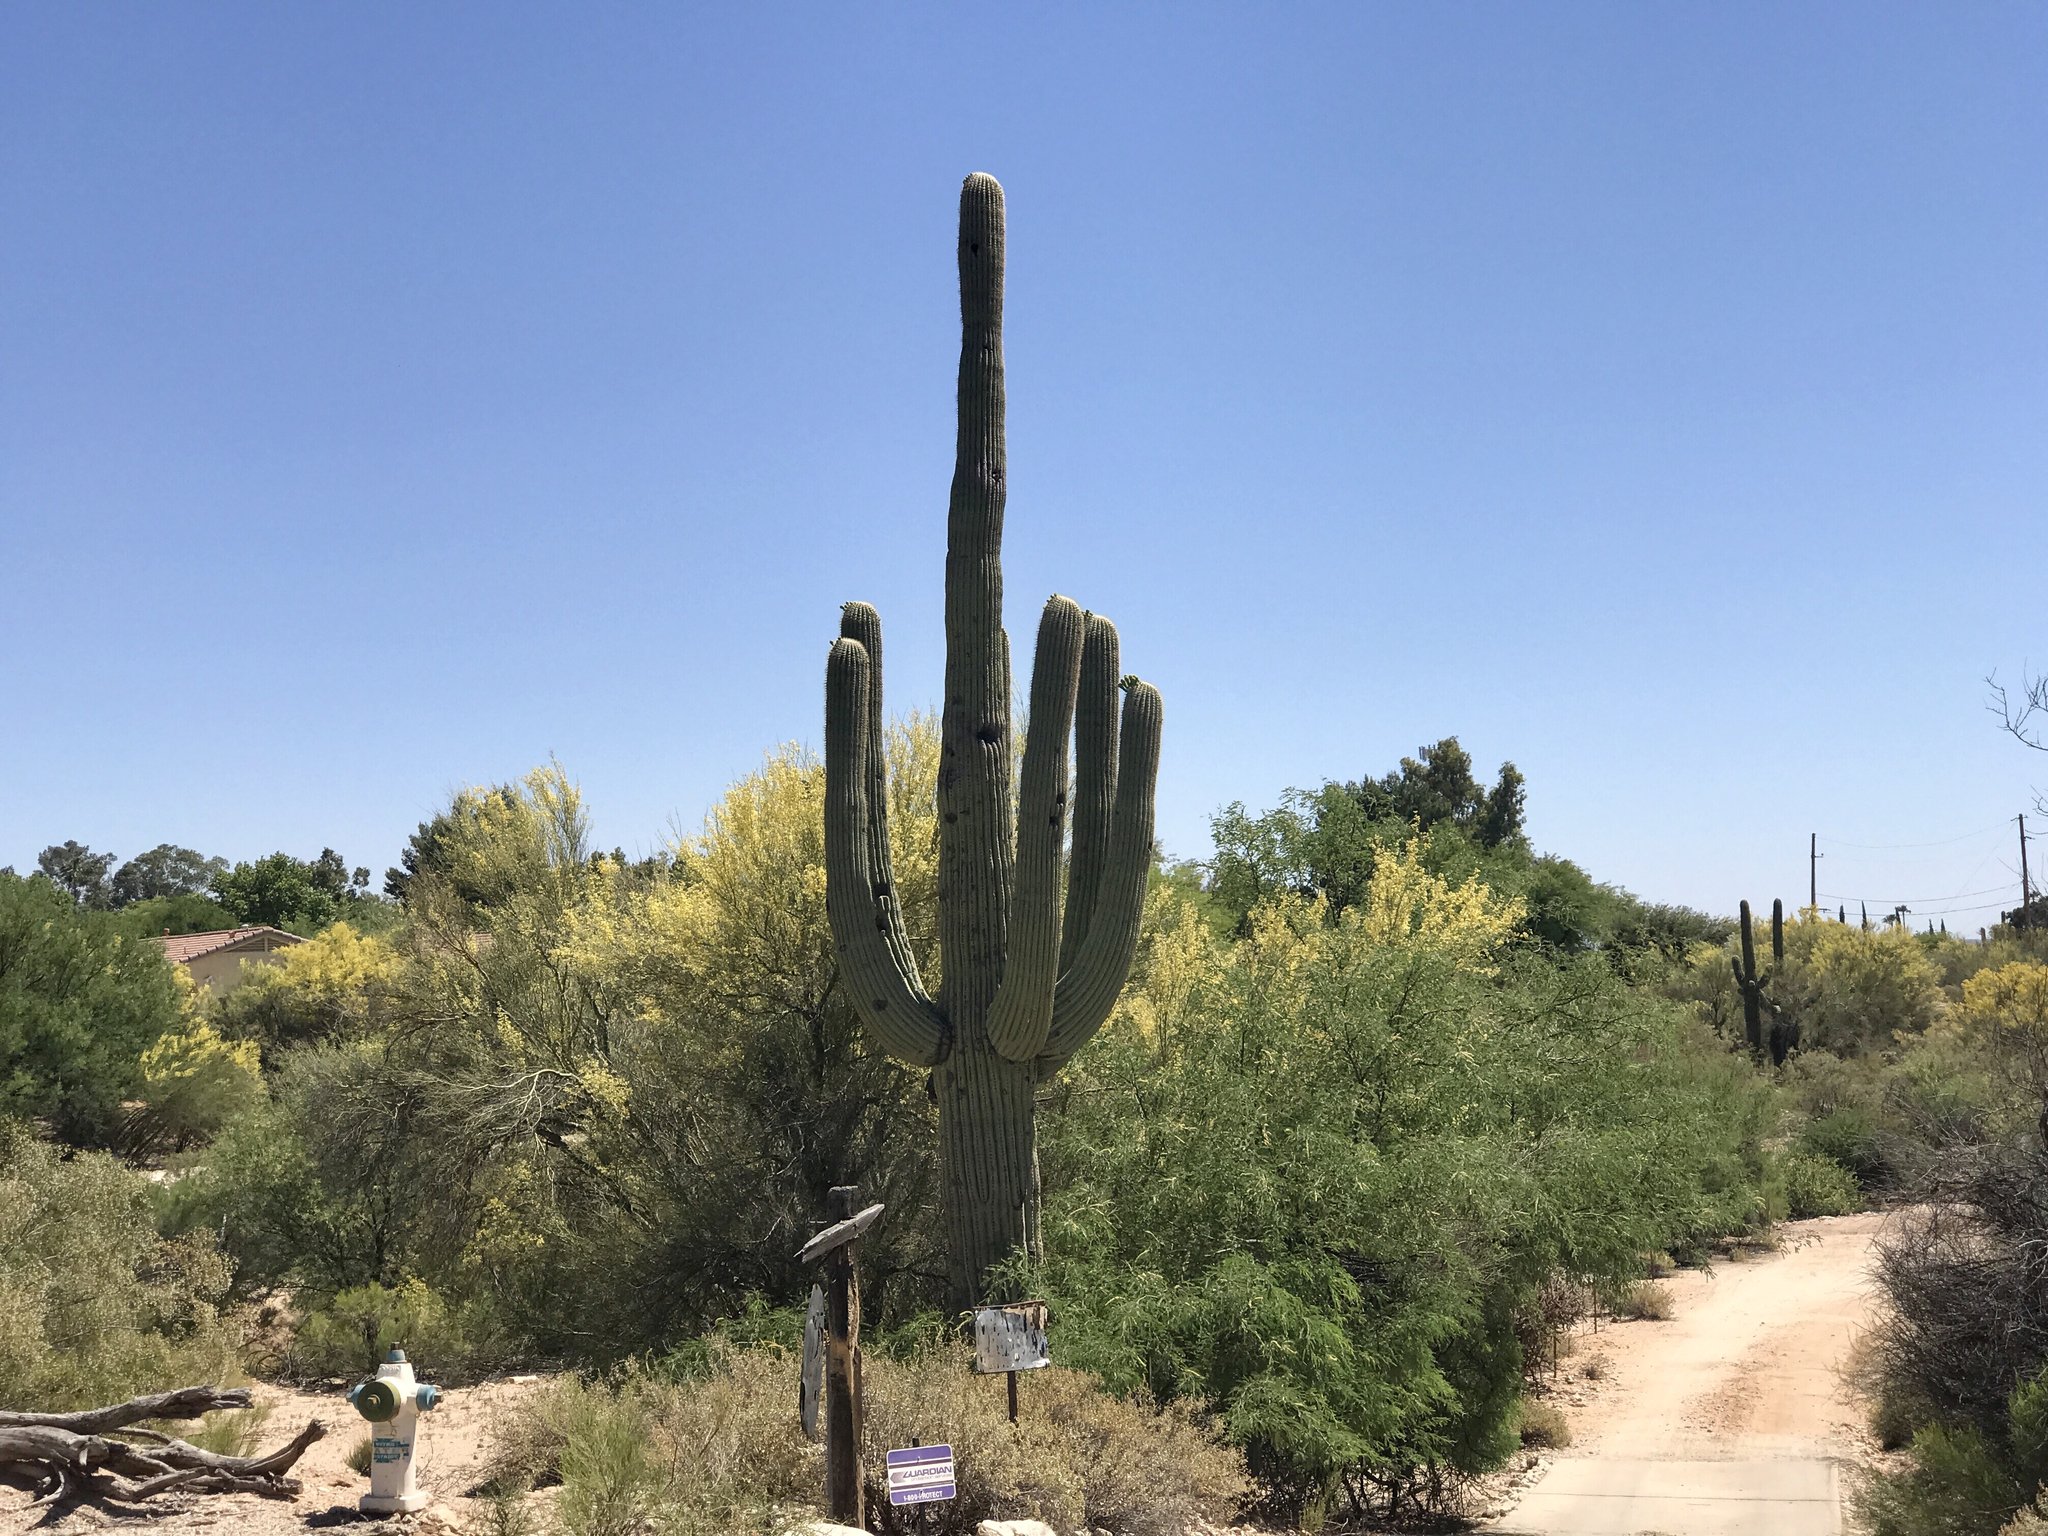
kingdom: Plantae
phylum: Tracheophyta
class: Magnoliopsida
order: Caryophyllales
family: Cactaceae
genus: Carnegiea
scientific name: Carnegiea gigantea
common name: Saguaro
